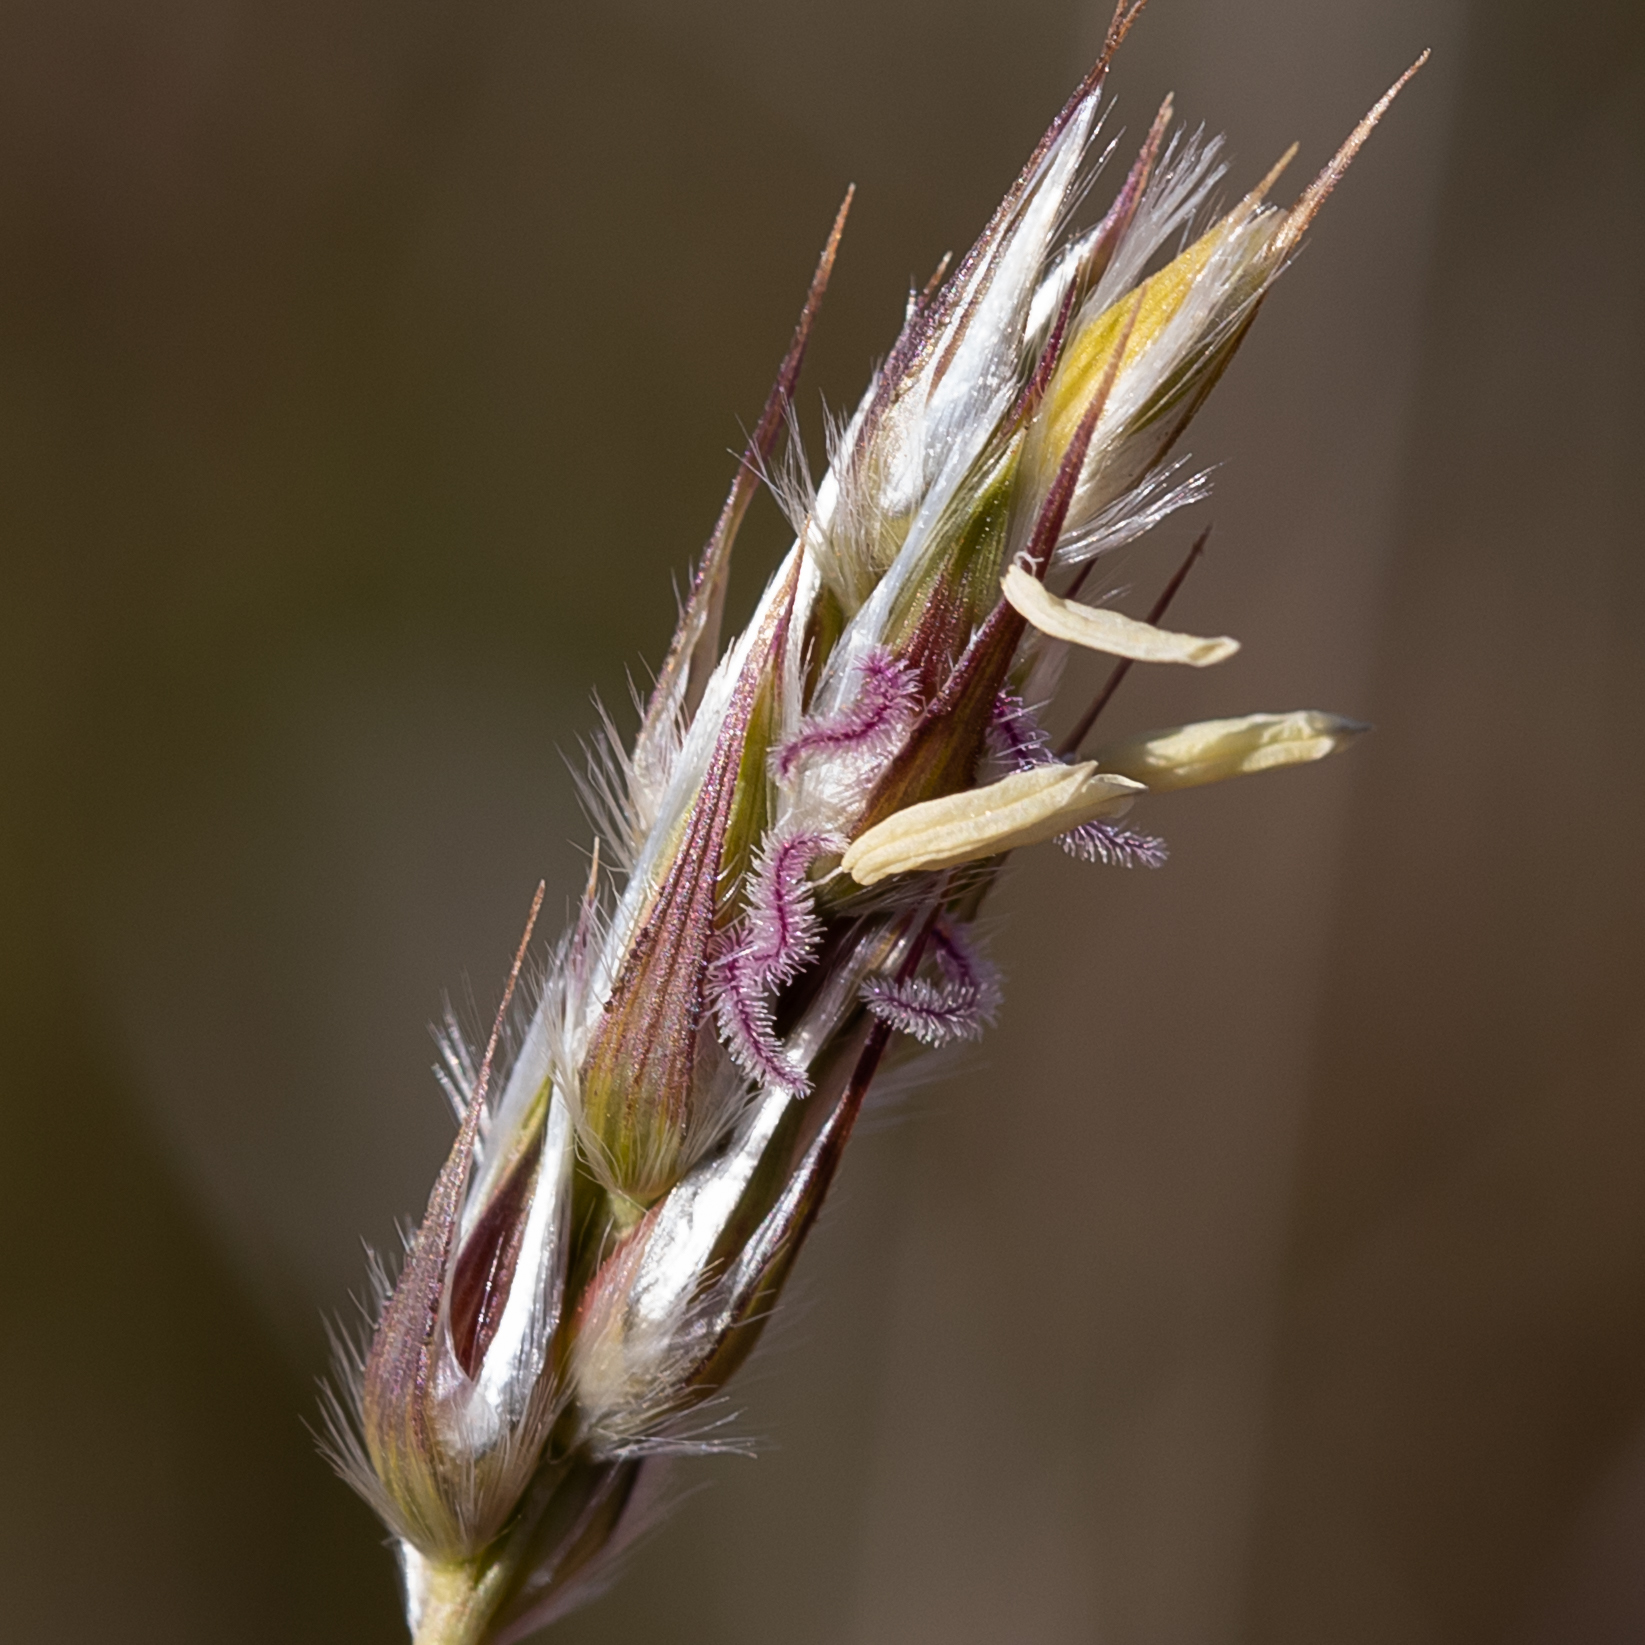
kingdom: Plantae
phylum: Tracheophyta
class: Liliopsida
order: Poales
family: Poaceae
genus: Neurachne
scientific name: Neurachne muelleri
